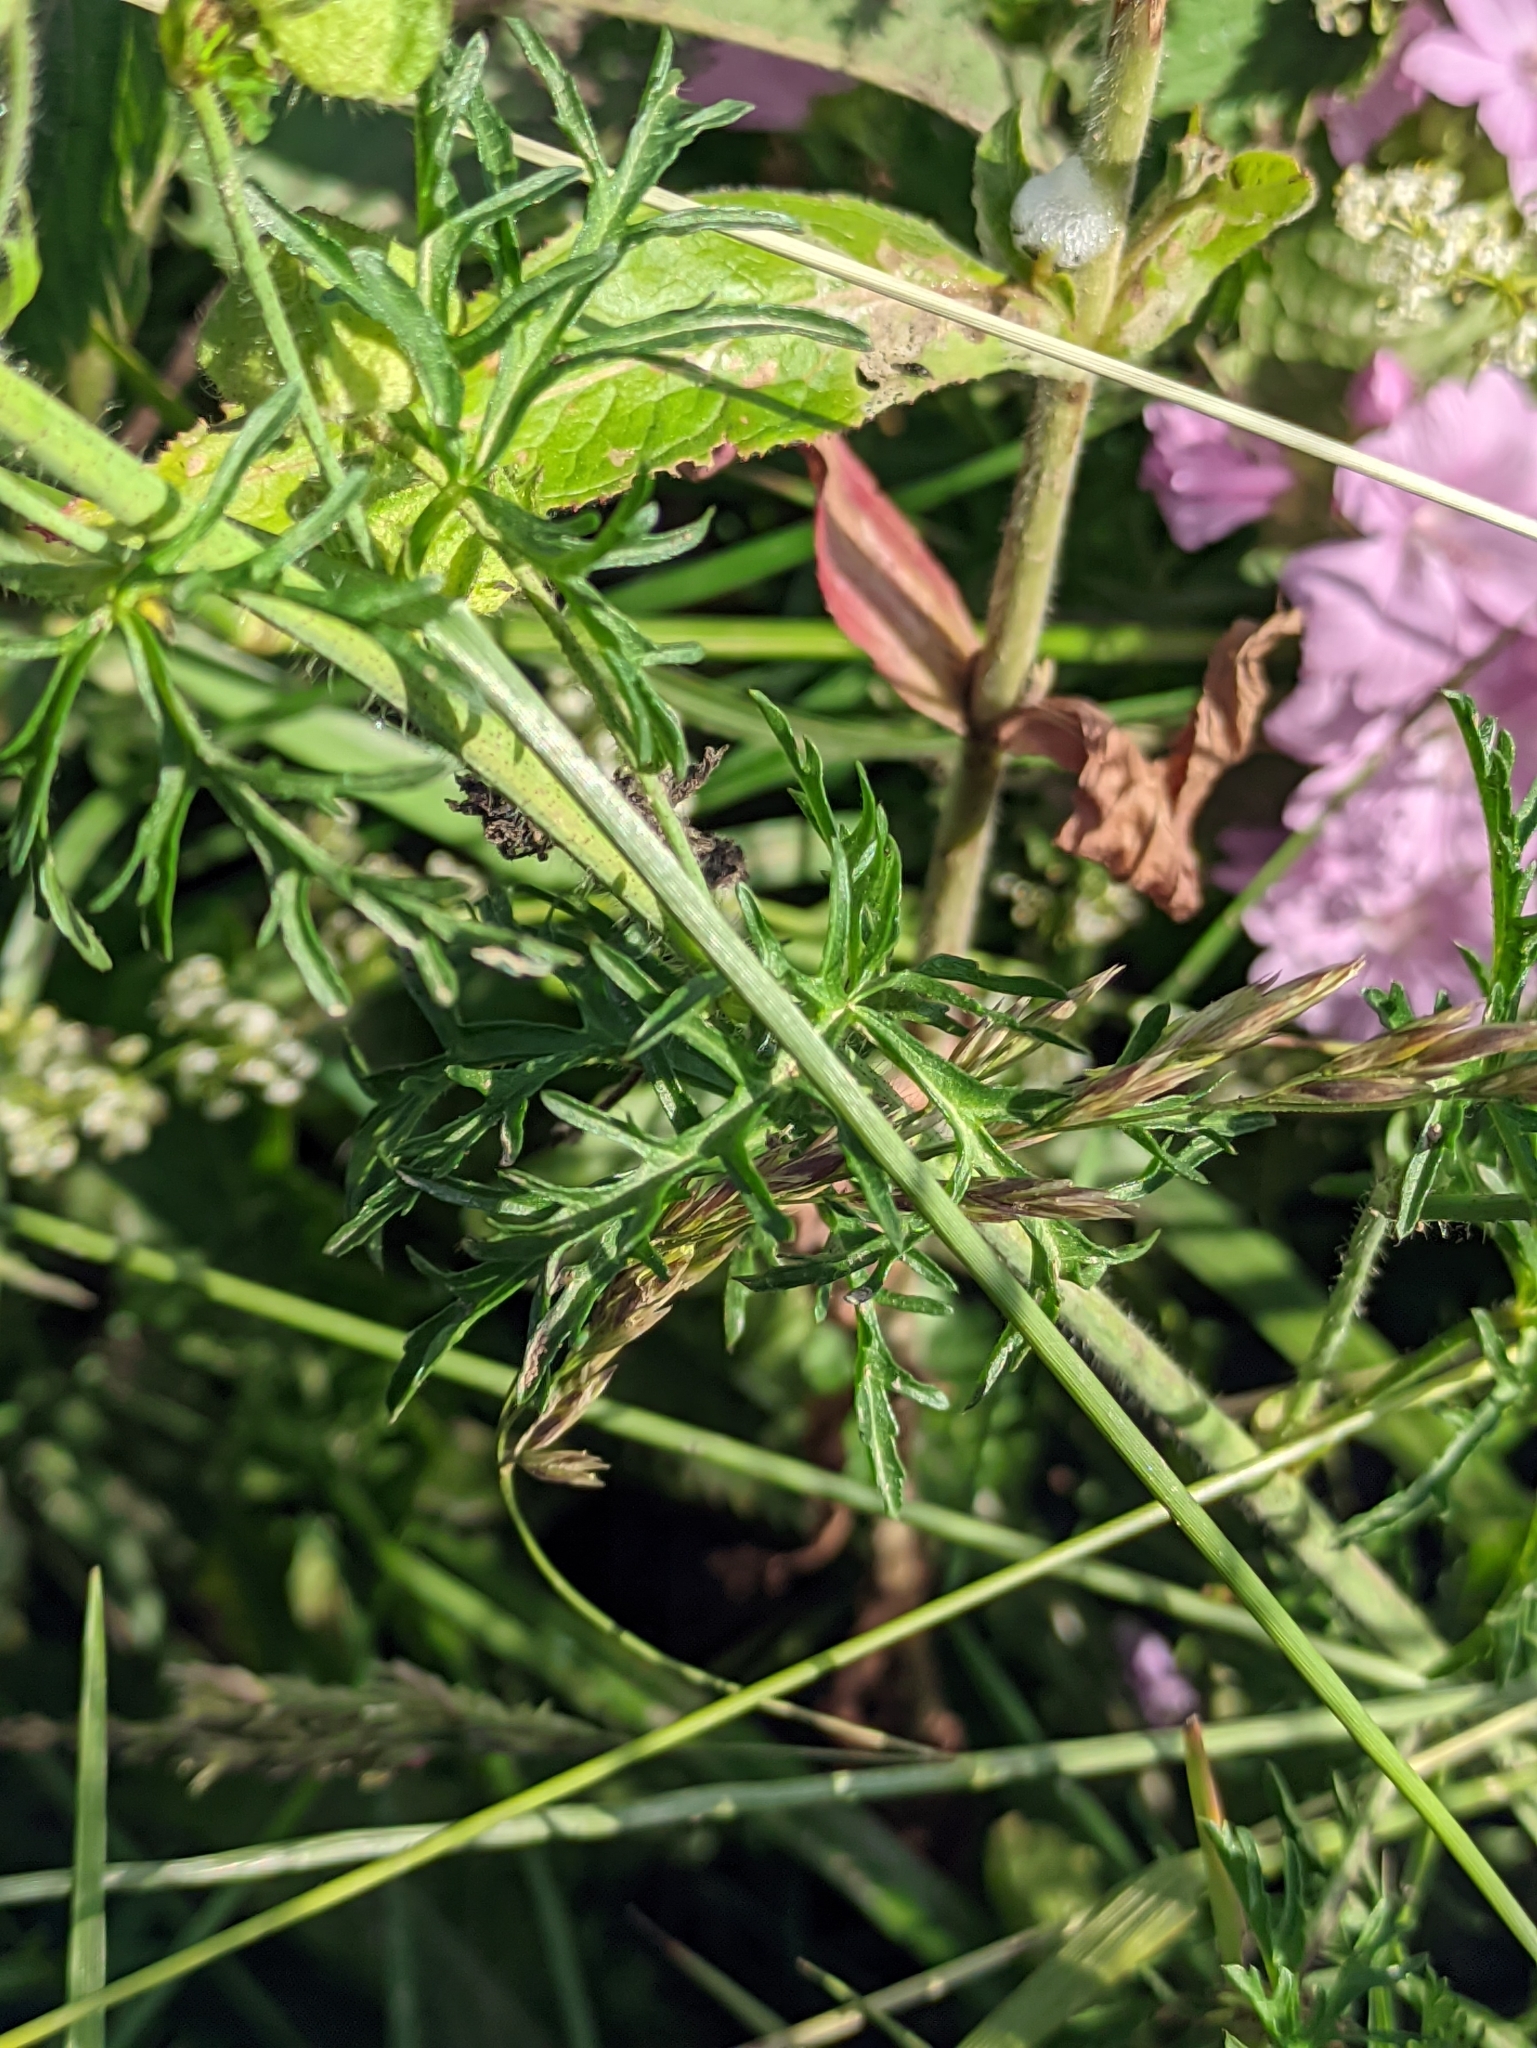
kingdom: Plantae
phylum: Tracheophyta
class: Magnoliopsida
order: Malvales
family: Malvaceae
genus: Malva
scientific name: Malva moschata
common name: Musk mallow
